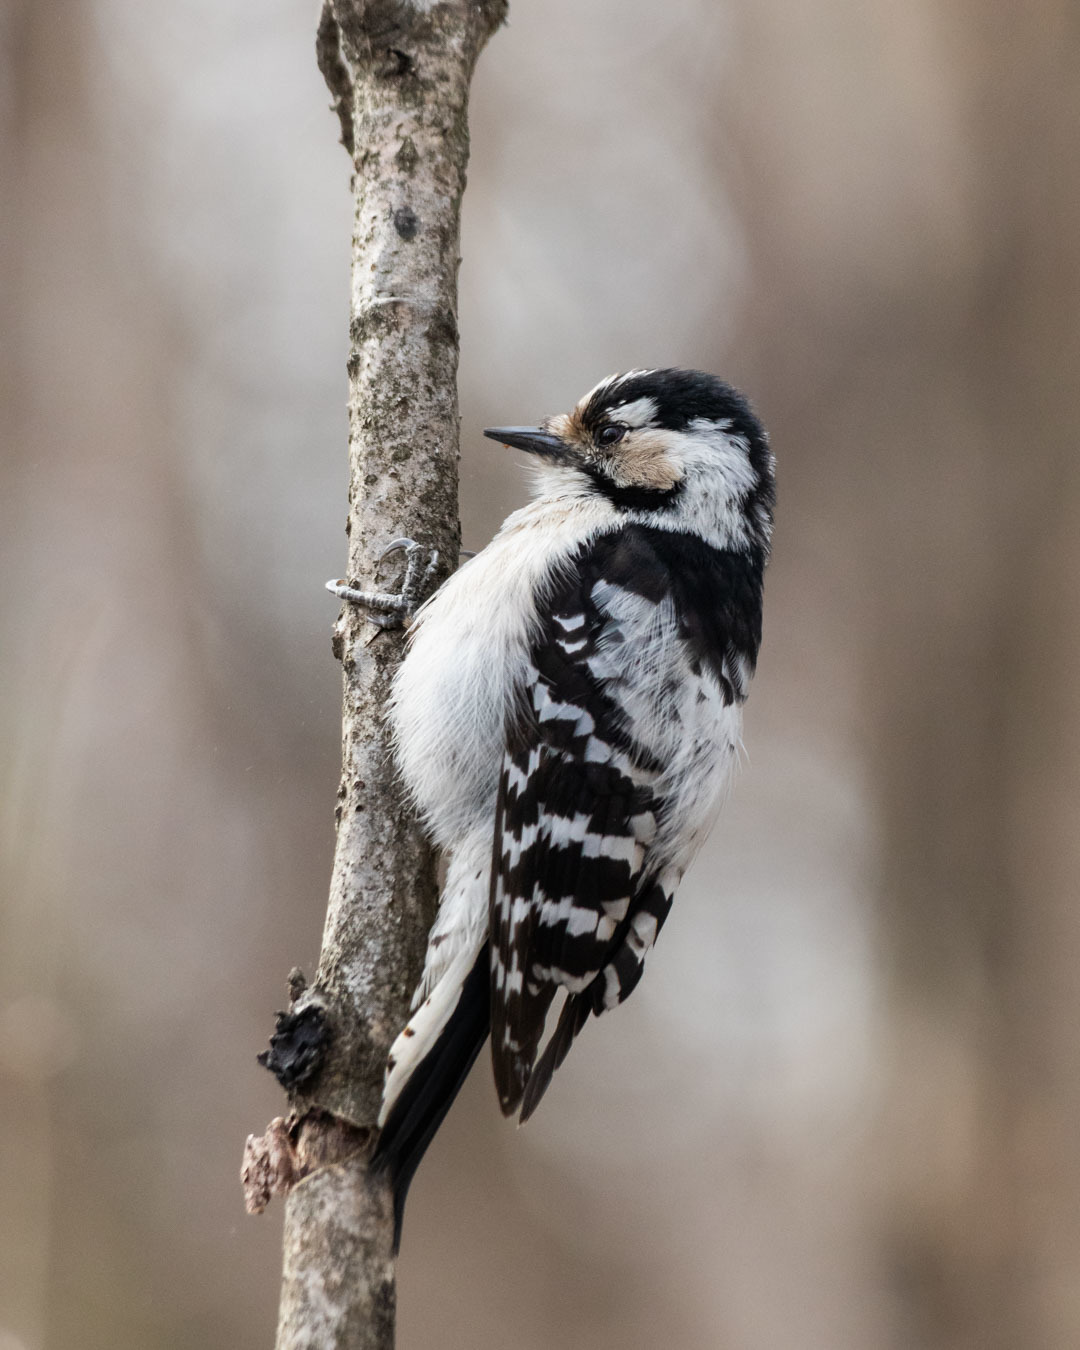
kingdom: Animalia
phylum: Chordata
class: Aves
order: Piciformes
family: Picidae
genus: Dryobates
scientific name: Dryobates minor
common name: Lesser spotted woodpecker
